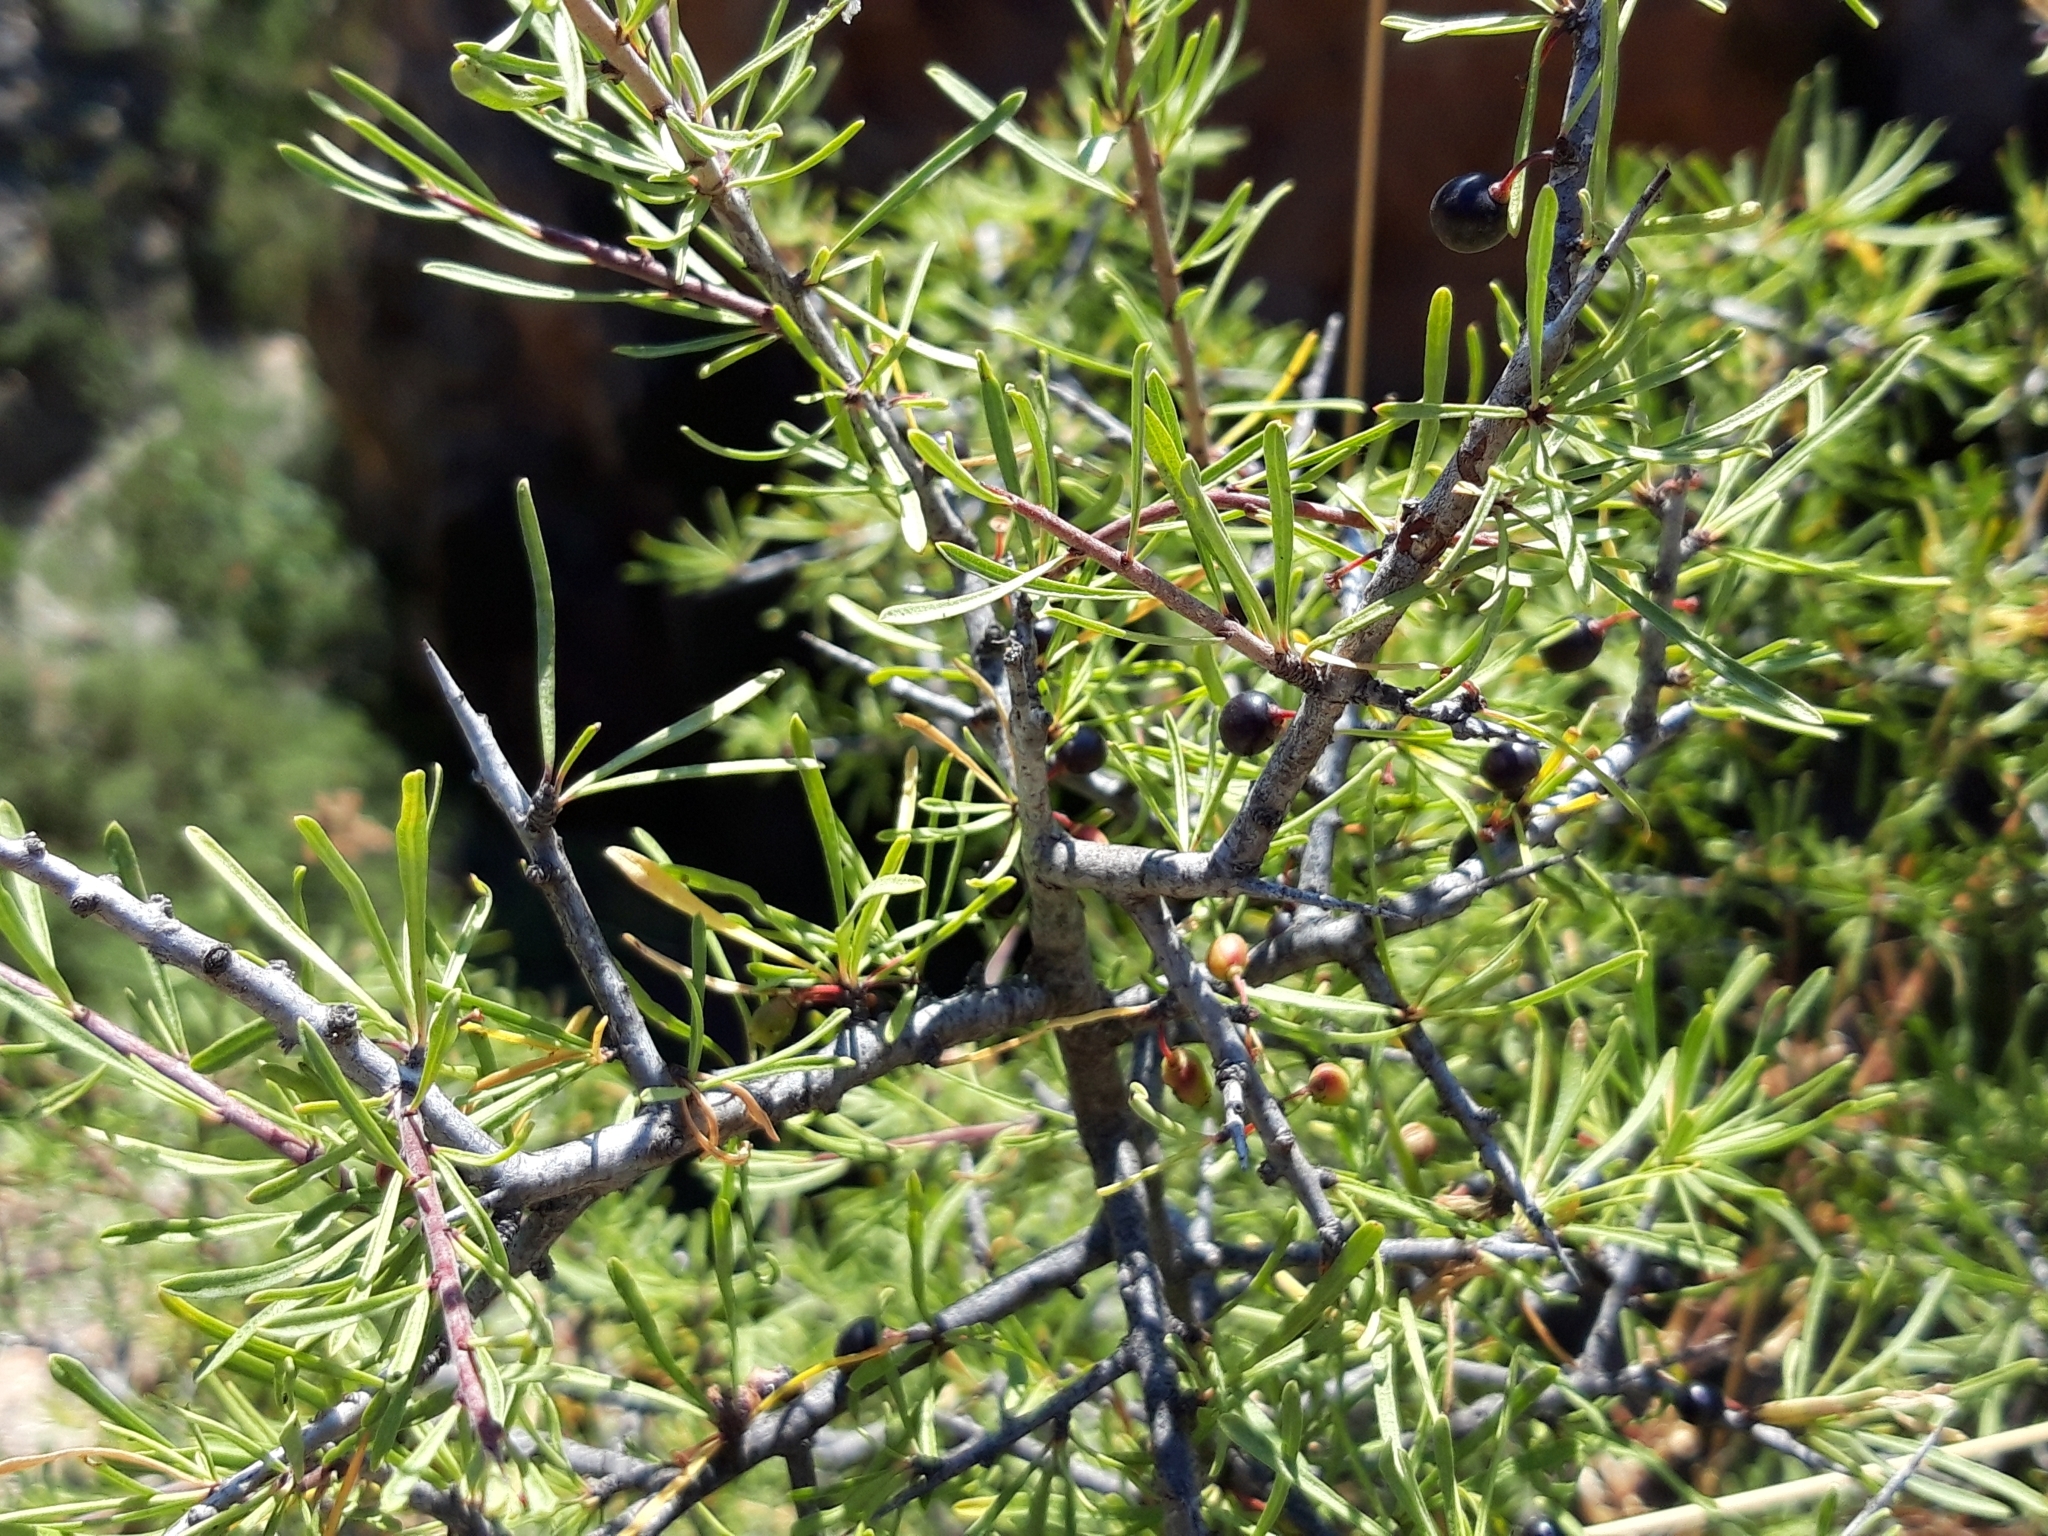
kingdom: Plantae
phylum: Tracheophyta
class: Magnoliopsida
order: Rosales
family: Rhamnaceae
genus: Rhamnus
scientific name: Rhamnus lycioides
